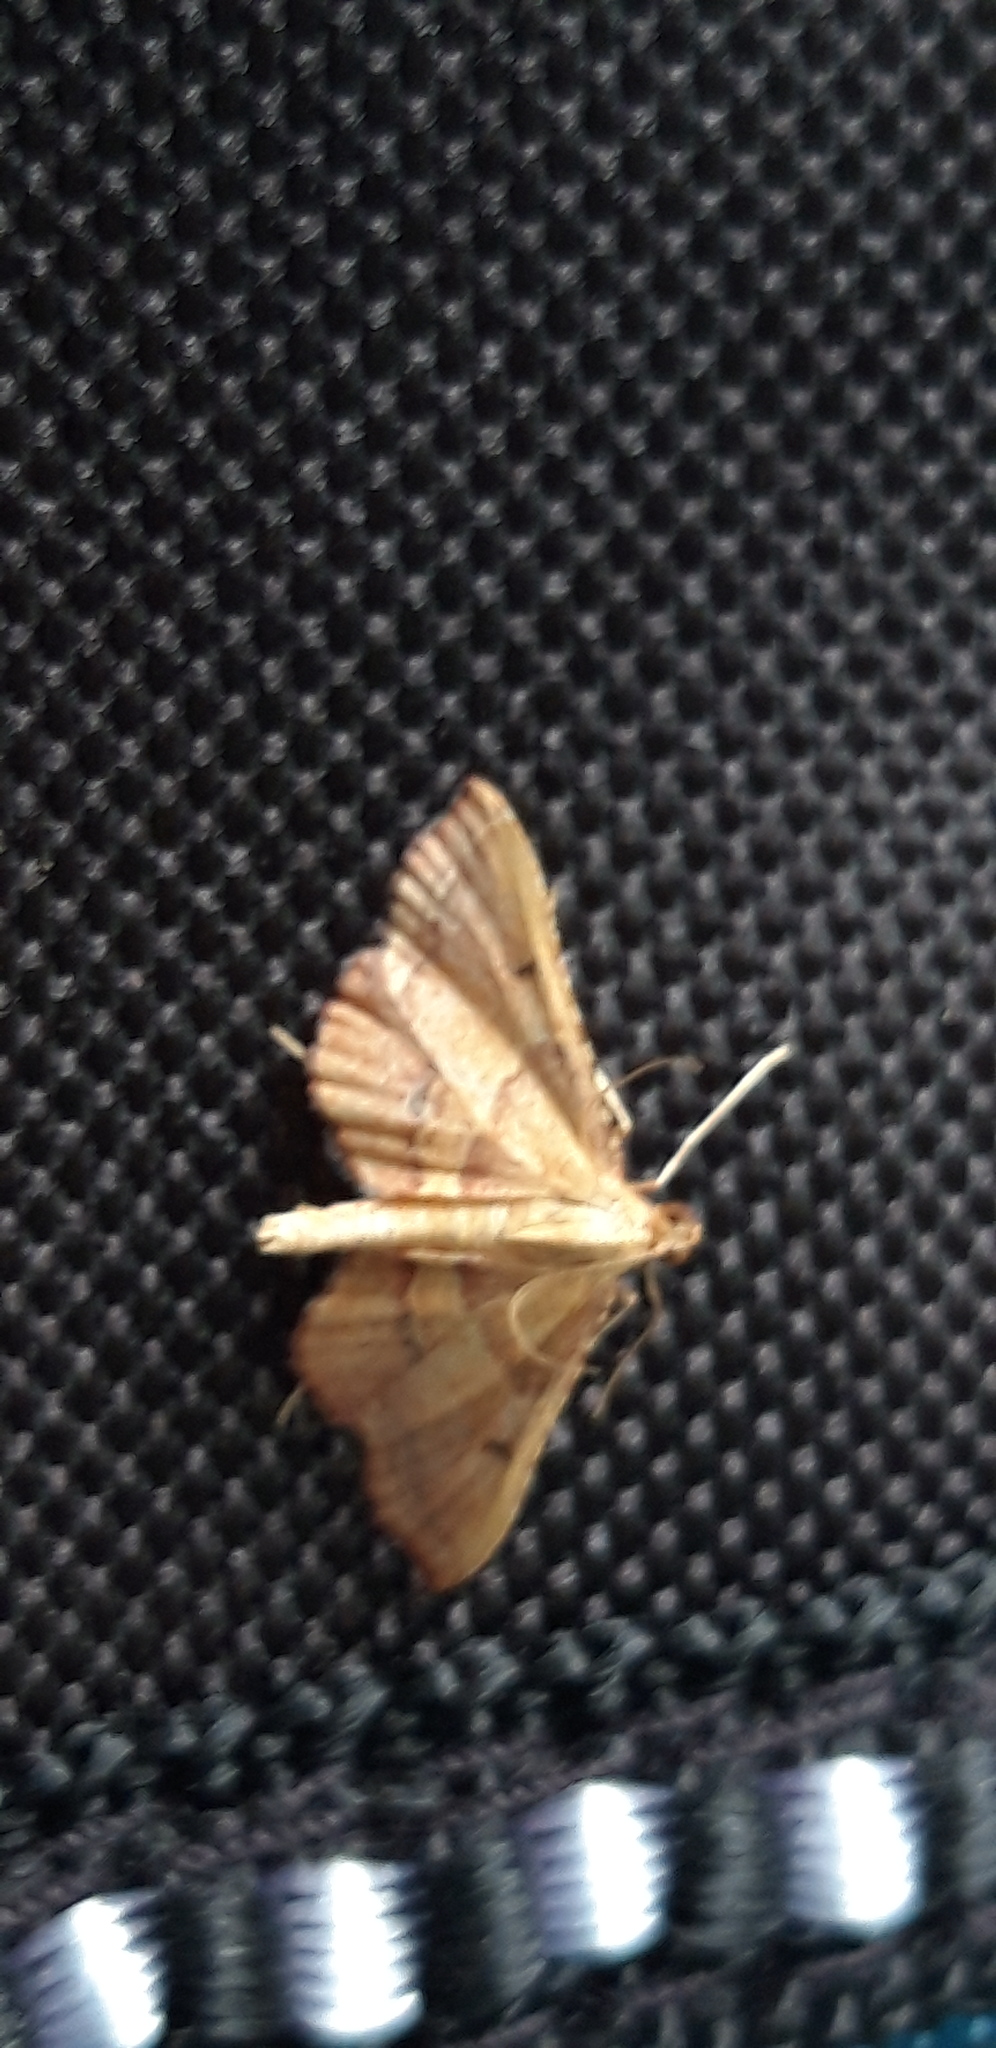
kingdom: Animalia
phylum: Arthropoda
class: Insecta
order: Lepidoptera
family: Pyralidae
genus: Endotricha
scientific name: Endotricha flammealis
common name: Rosy tabby
